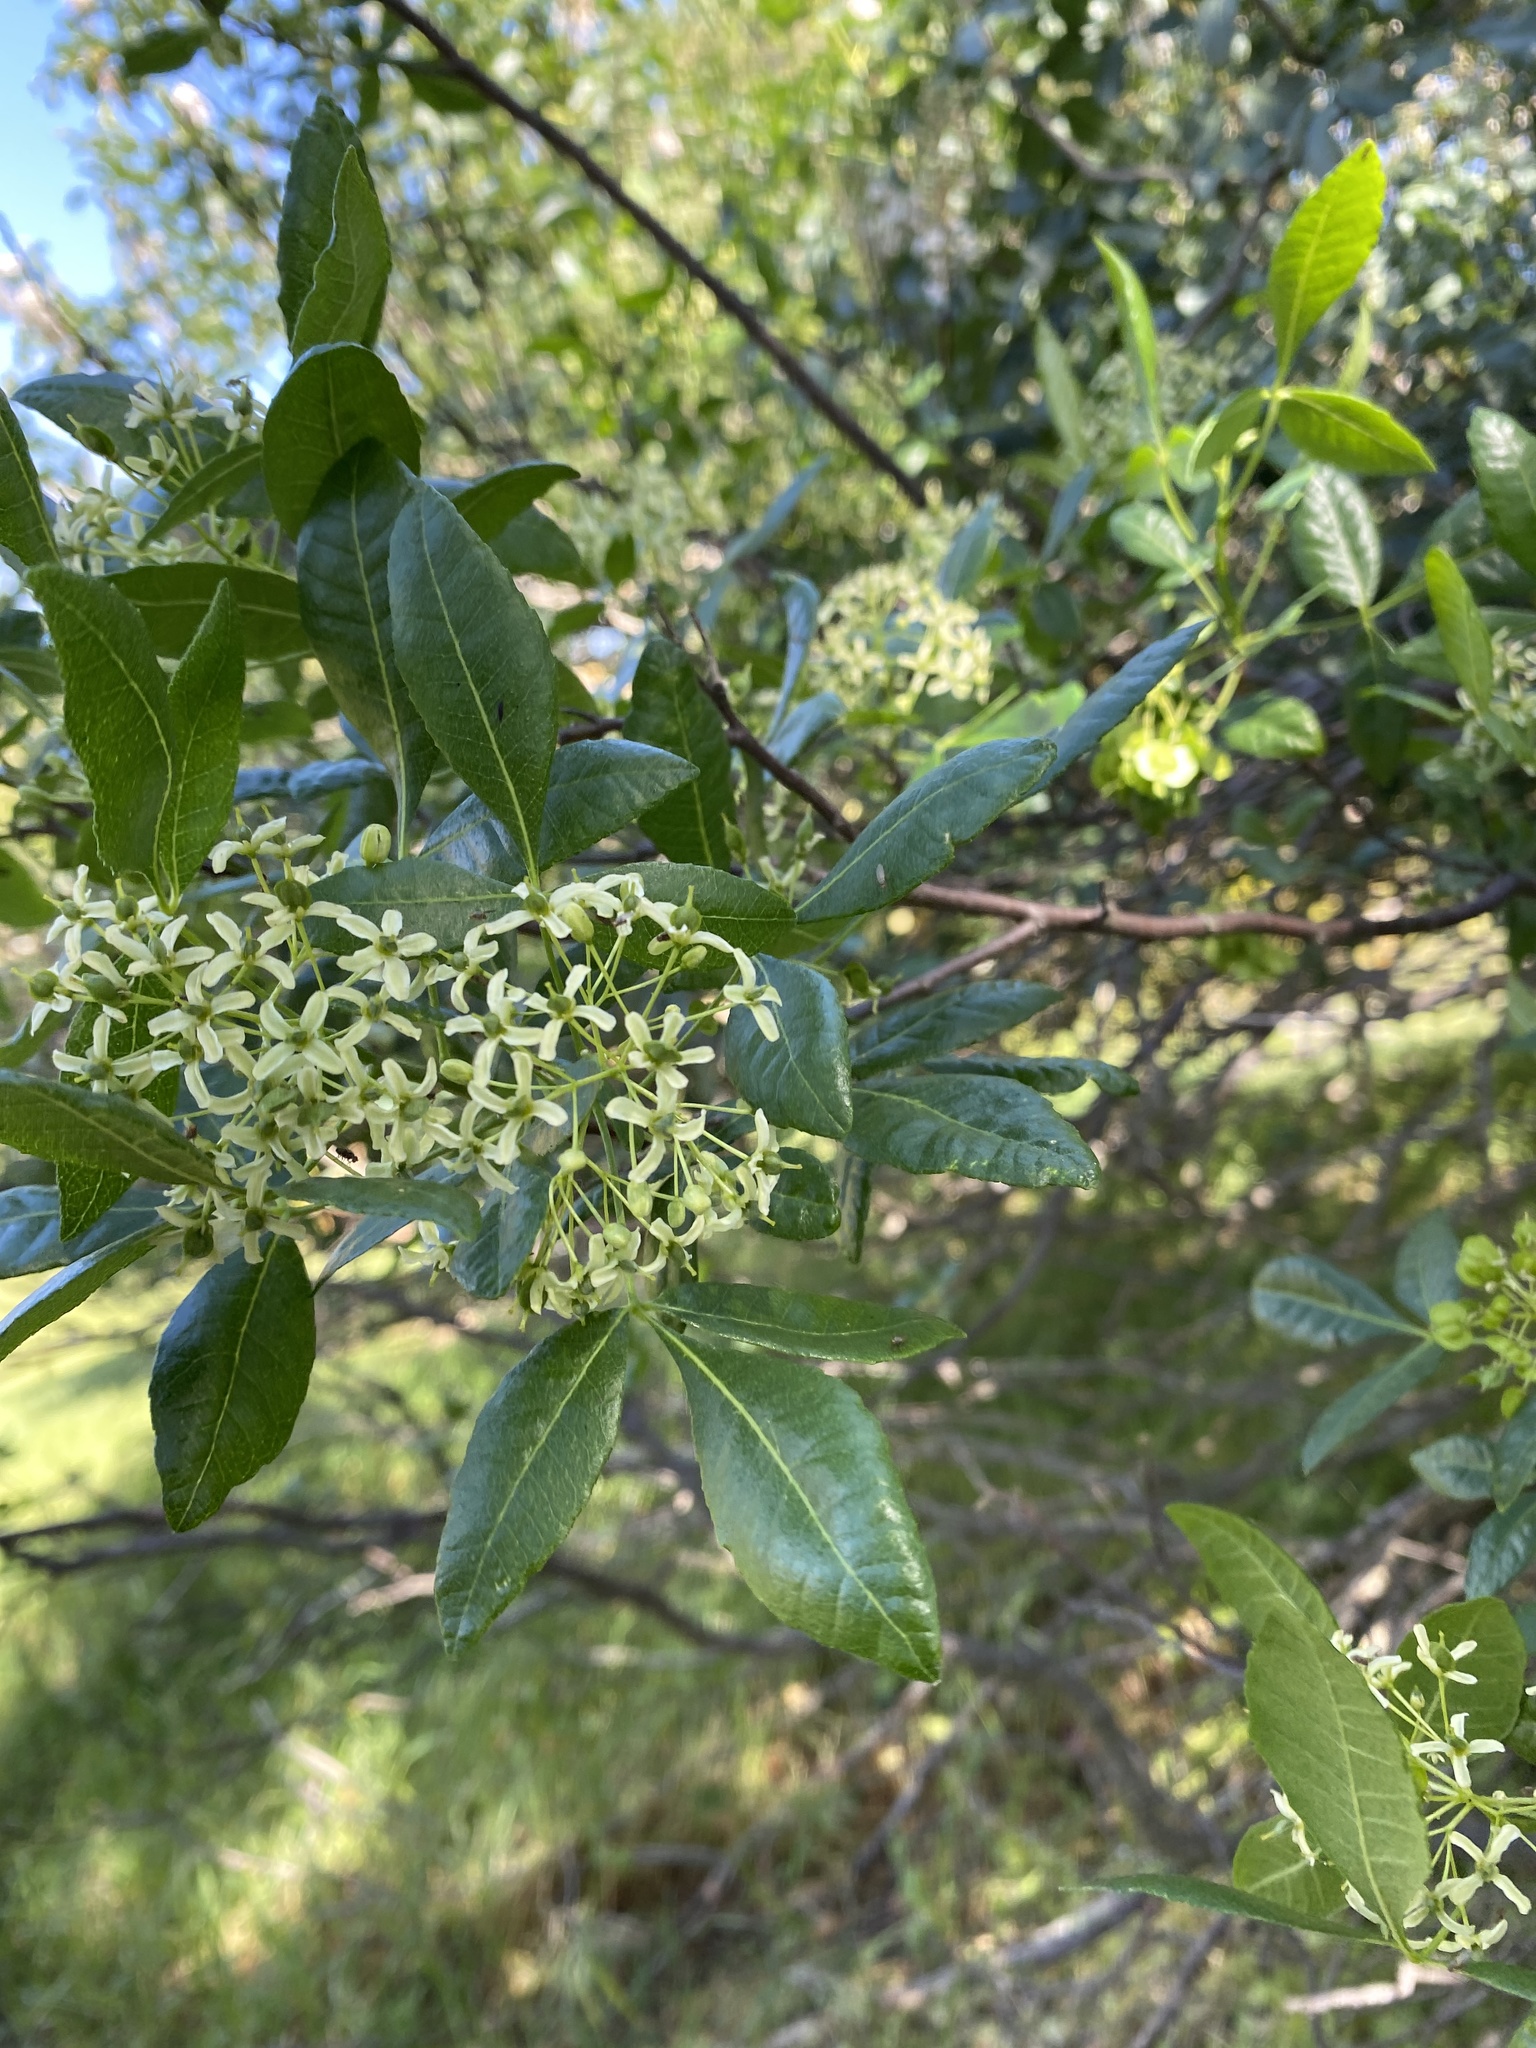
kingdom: Plantae
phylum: Tracheophyta
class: Magnoliopsida
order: Sapindales
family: Rutaceae
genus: Ptelea
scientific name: Ptelea crenulata
